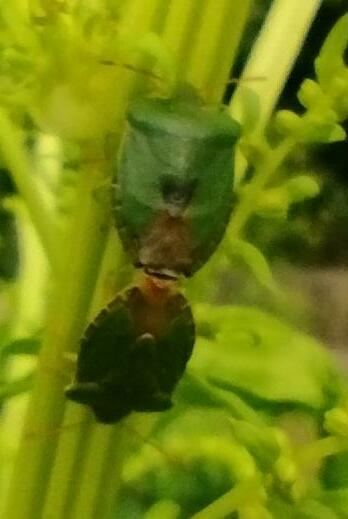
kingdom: Animalia
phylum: Arthropoda
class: Insecta
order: Hemiptera
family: Pentatomidae
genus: Palomena
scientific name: Palomena prasina
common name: Green shieldbug
